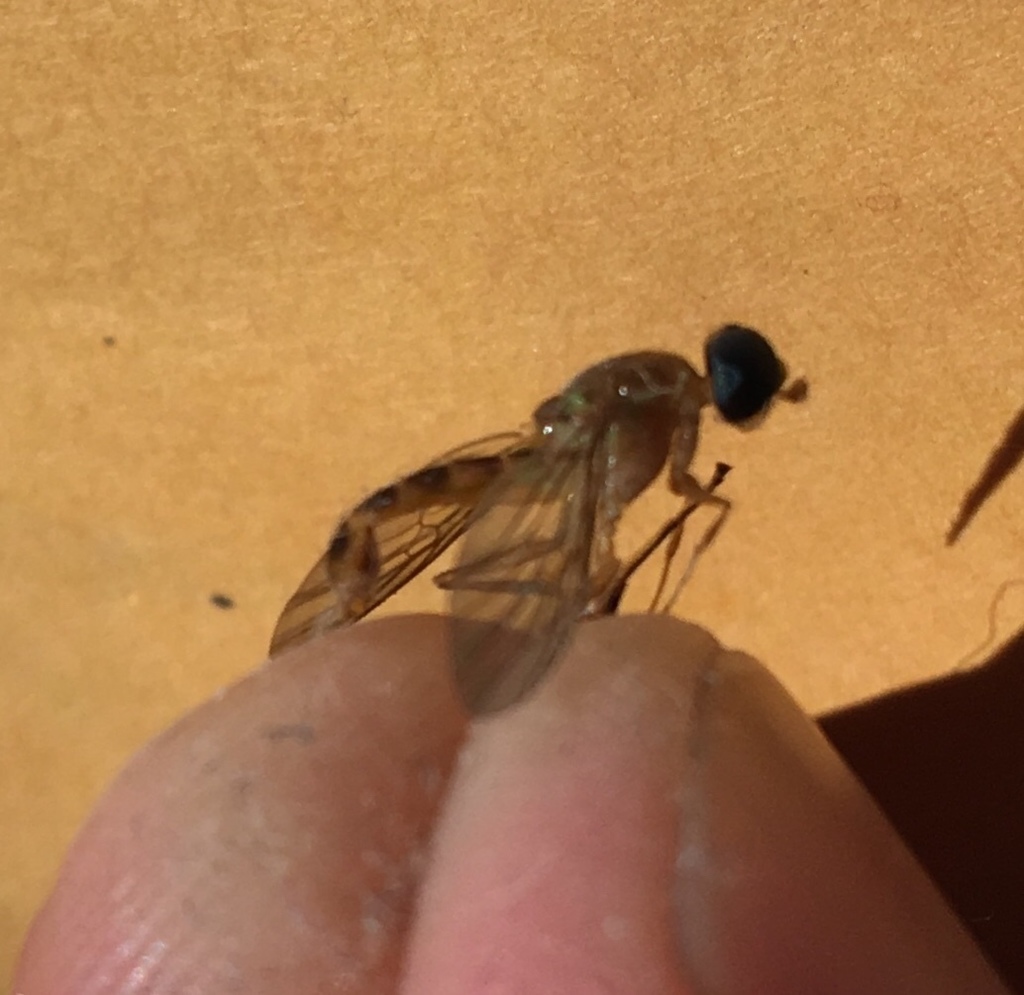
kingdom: Animalia
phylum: Arthropoda
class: Insecta
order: Diptera
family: Stratiomyidae
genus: Ptecticus
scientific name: Ptecticus trivittatus
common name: Compost fly
